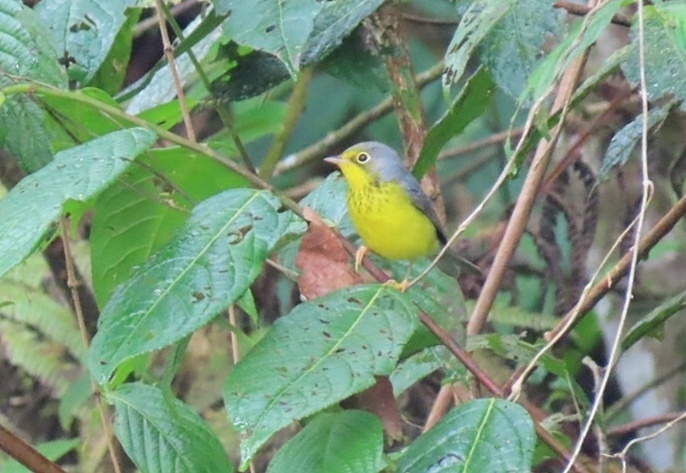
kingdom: Animalia
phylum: Chordata
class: Aves
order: Passeriformes
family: Parulidae
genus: Cardellina
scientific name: Cardellina canadensis
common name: Canada warbler
